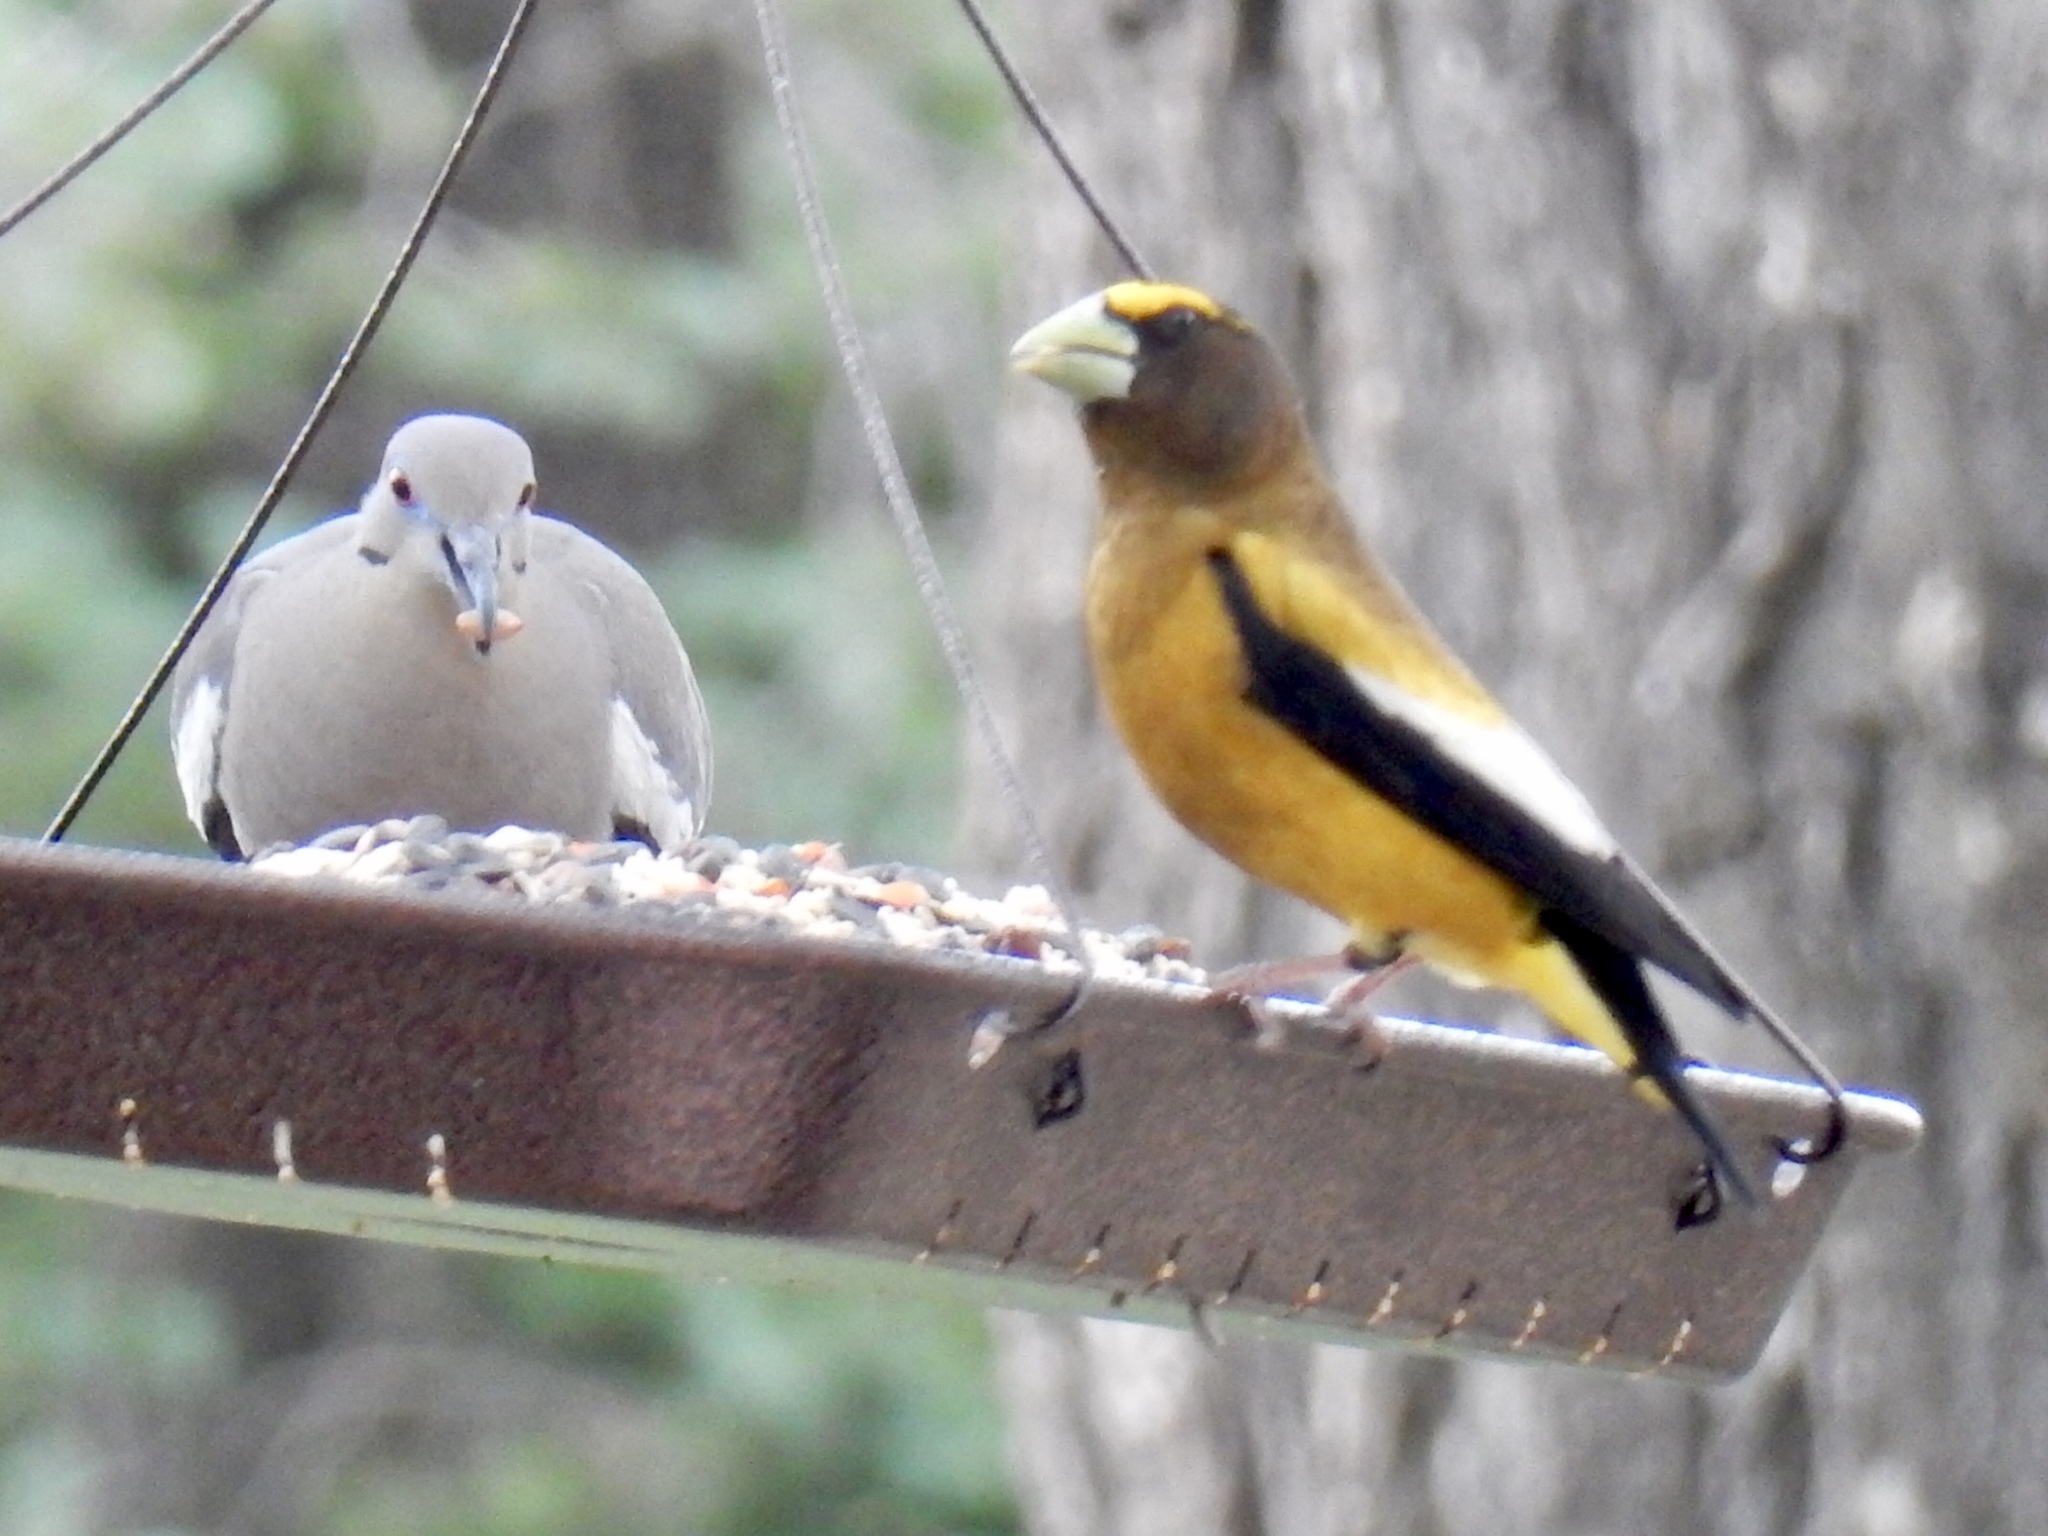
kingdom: Animalia
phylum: Chordata
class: Aves
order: Passeriformes
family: Fringillidae
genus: Hesperiphona
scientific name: Hesperiphona vespertina
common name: Evening grosbeak
